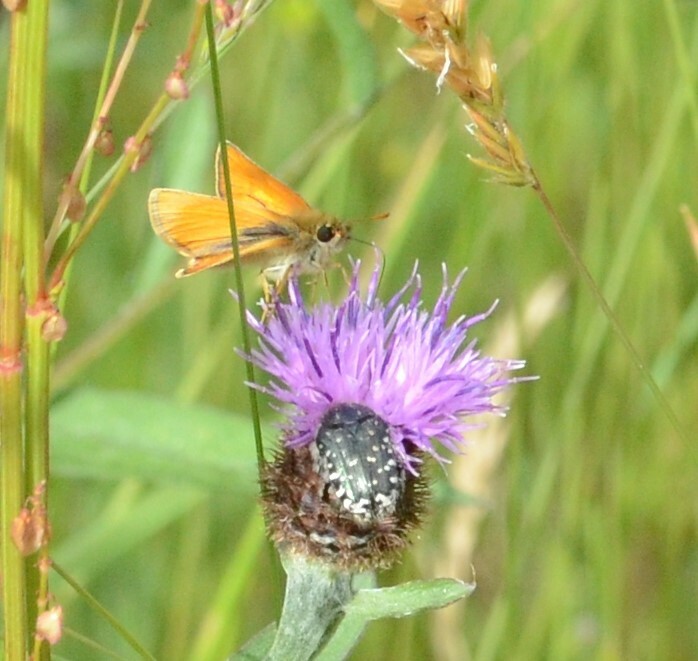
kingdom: Animalia
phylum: Arthropoda
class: Insecta
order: Lepidoptera
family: Hesperiidae
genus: Thymelicus
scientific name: Thymelicus sylvestris
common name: Small skipper
